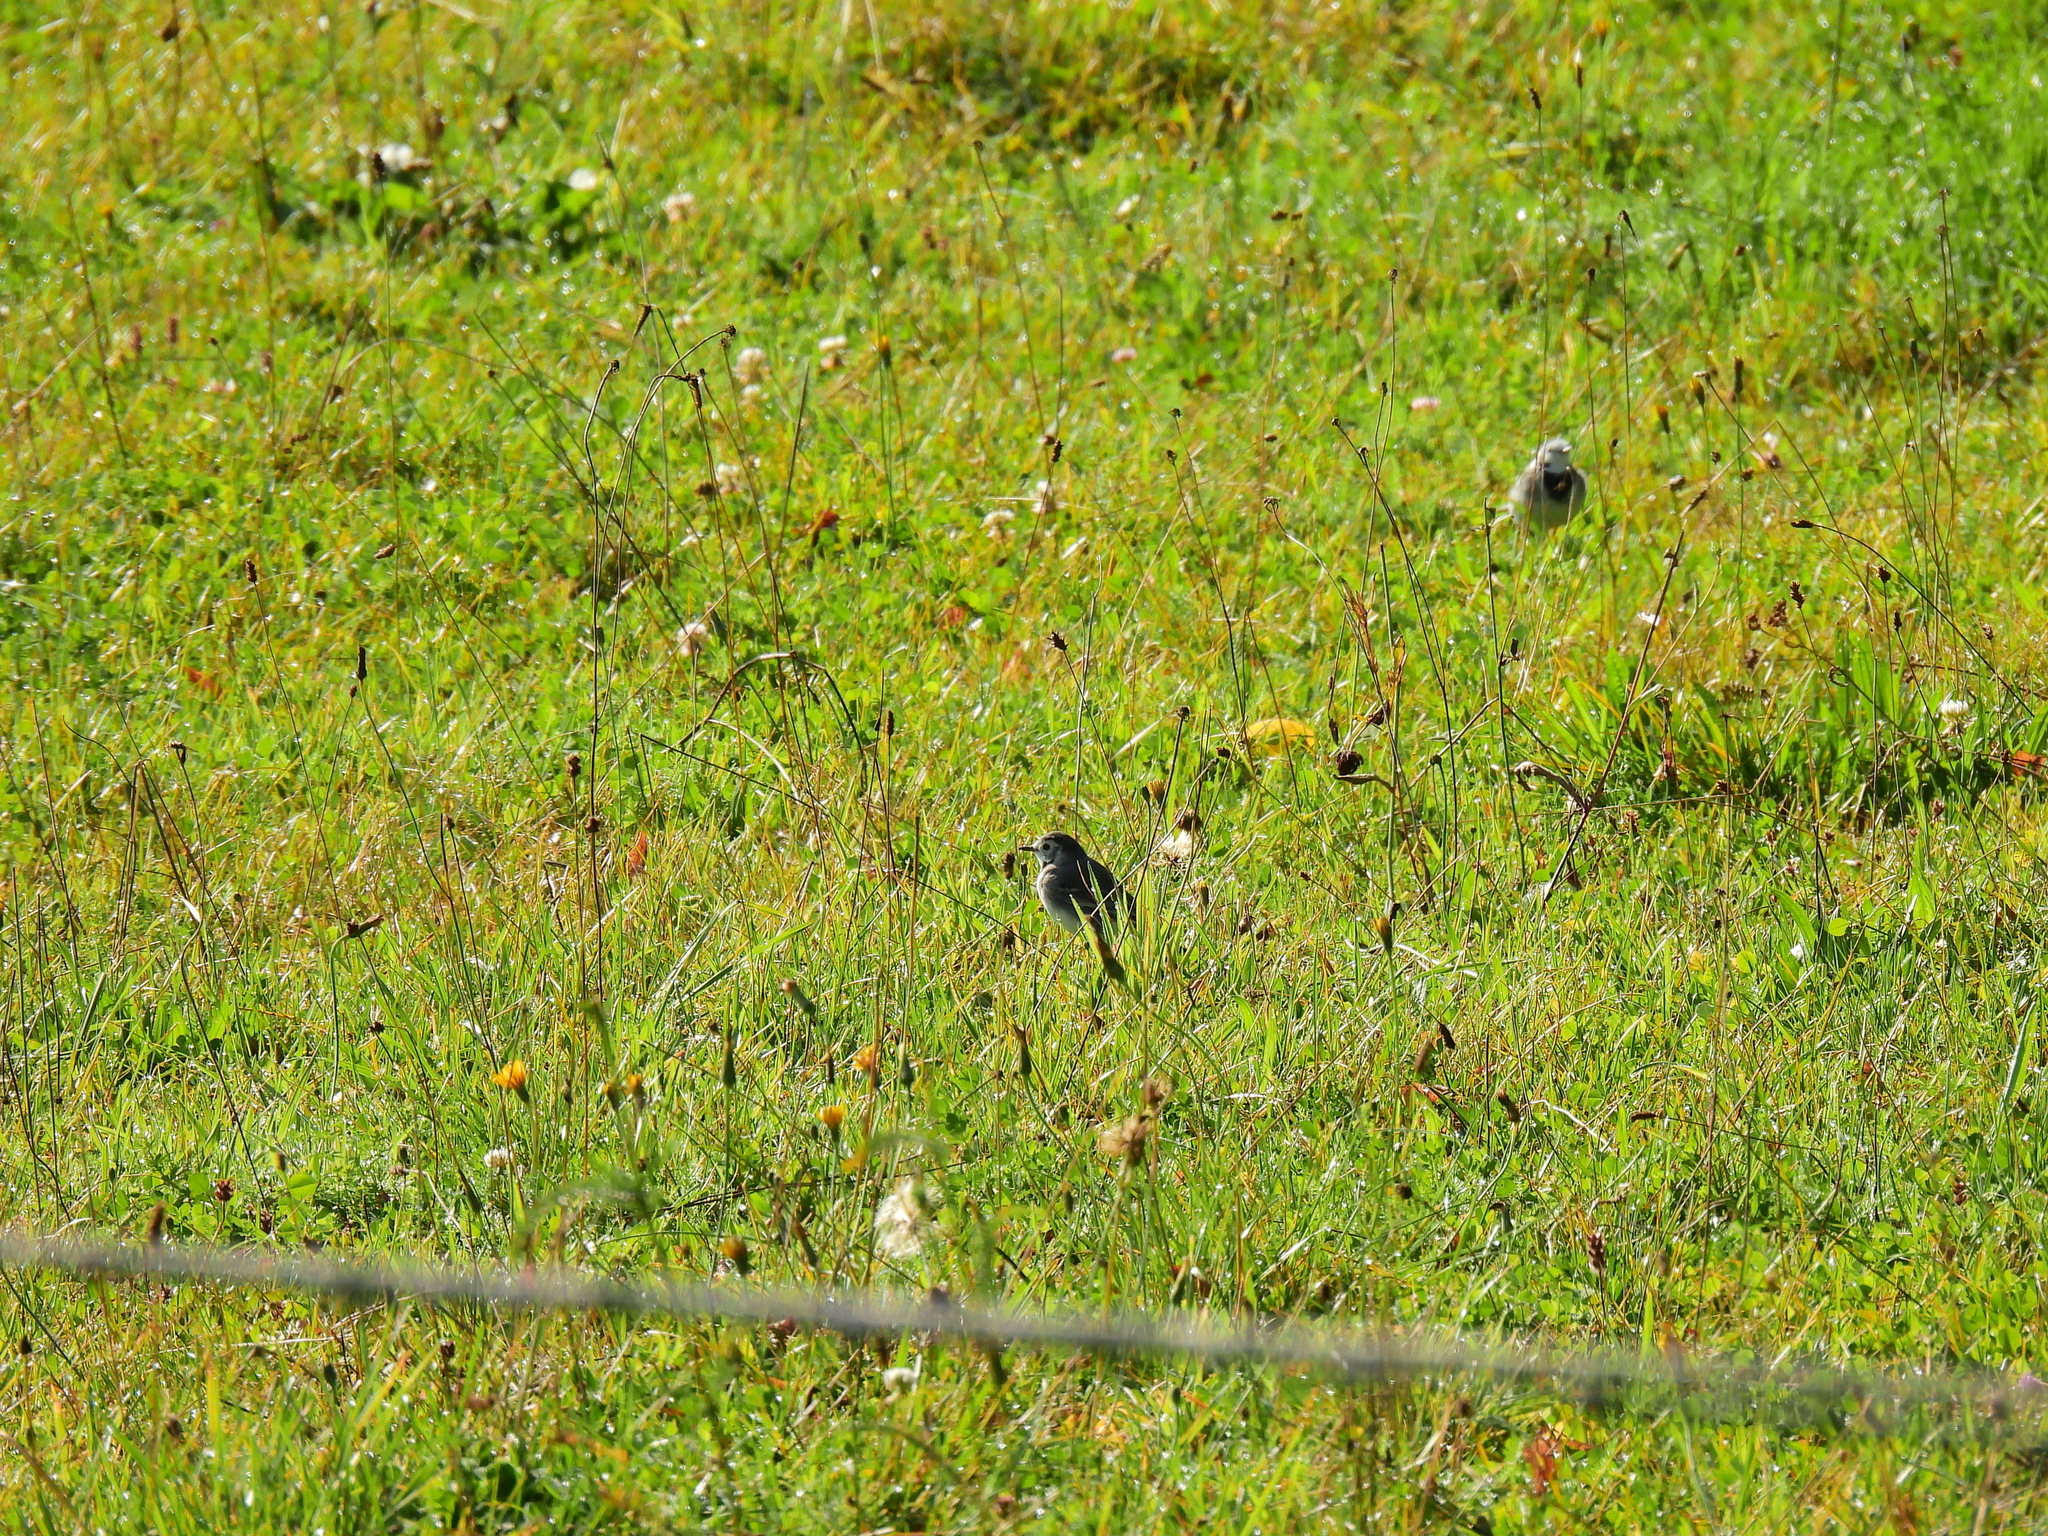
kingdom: Animalia
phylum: Chordata
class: Aves
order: Passeriformes
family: Motacillidae
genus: Motacilla
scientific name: Motacilla alba
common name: White wagtail
